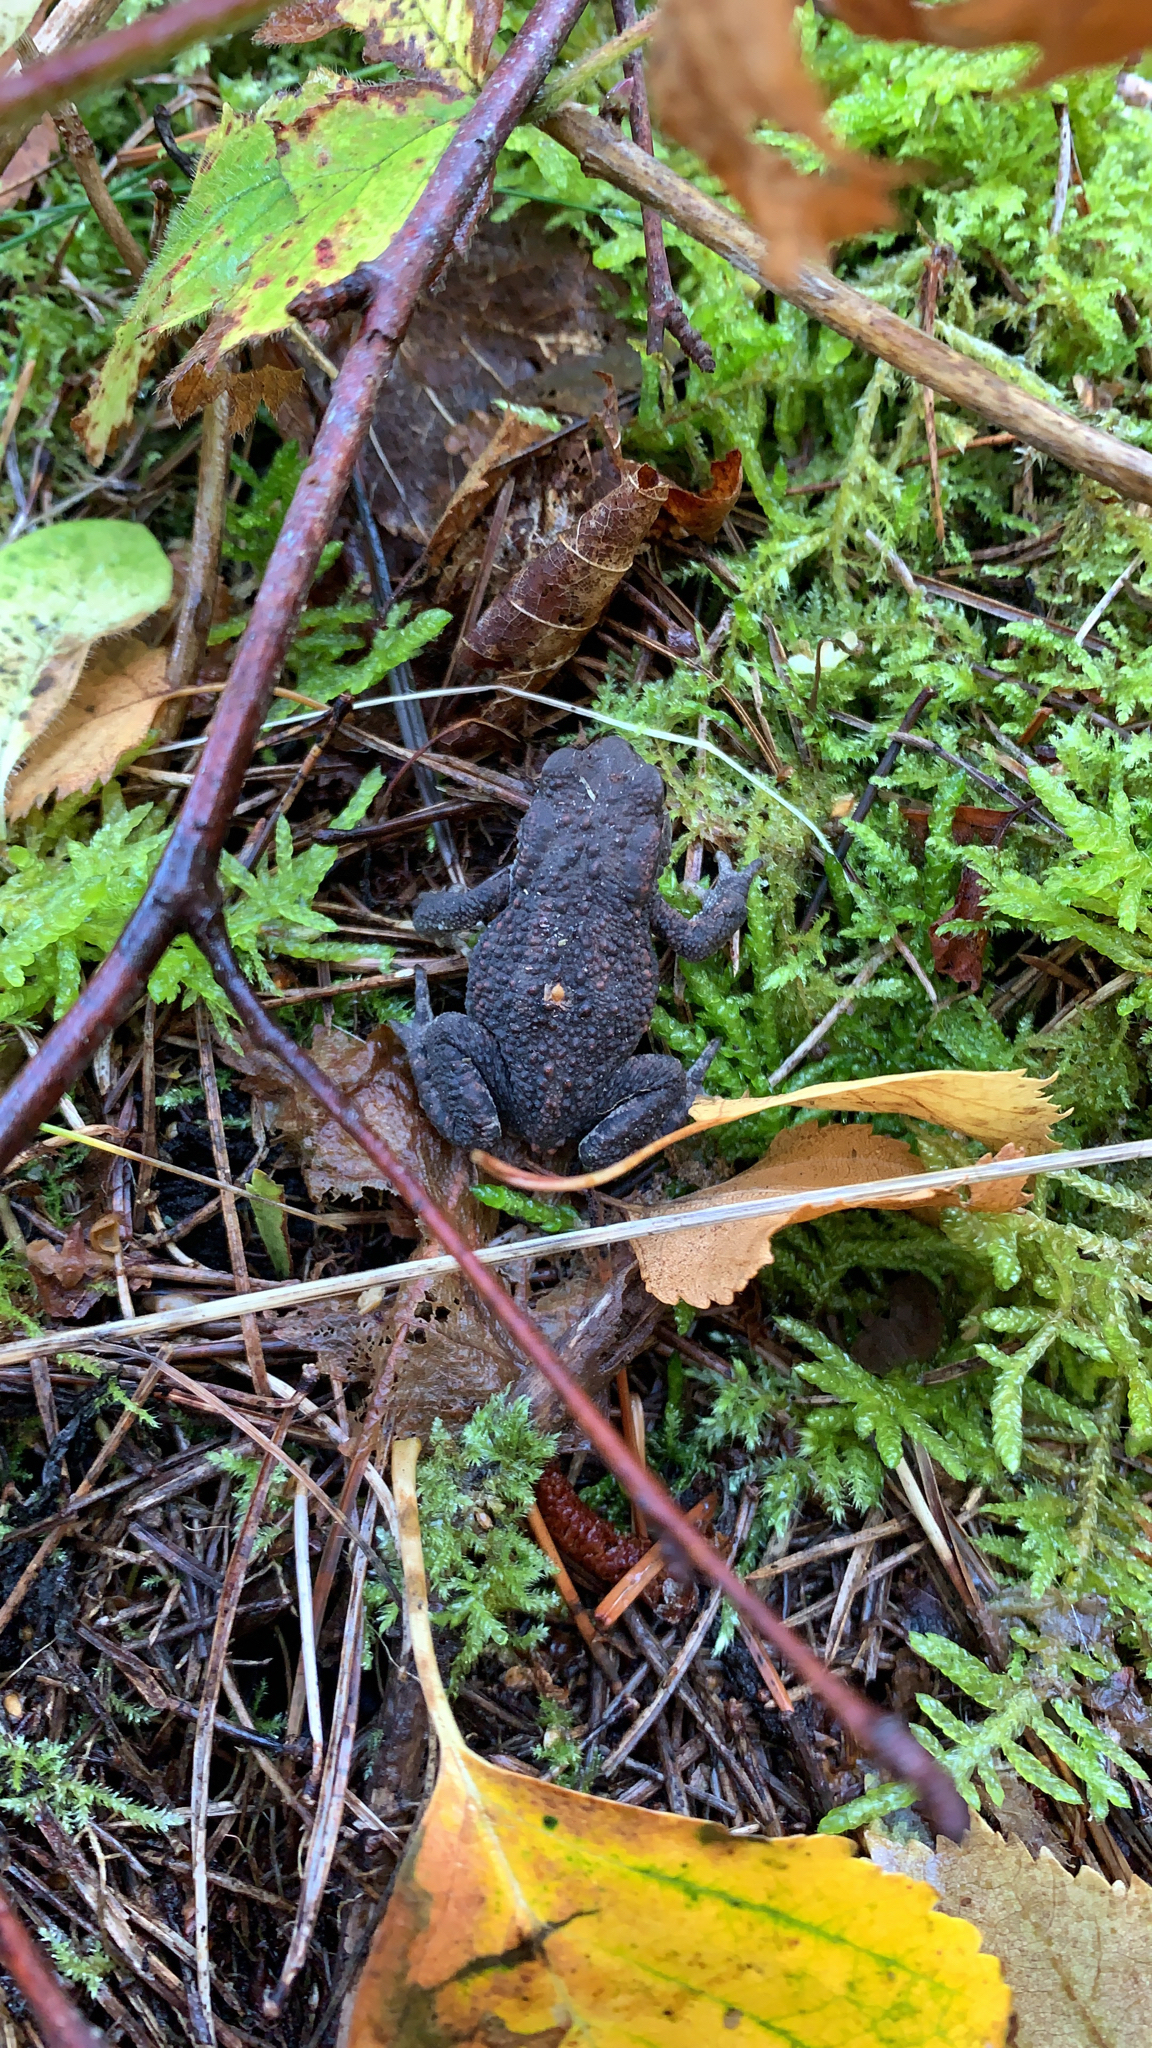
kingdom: Animalia
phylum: Chordata
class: Amphibia
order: Anura
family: Bufonidae
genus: Bufo
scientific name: Bufo bufo
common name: Common toad
